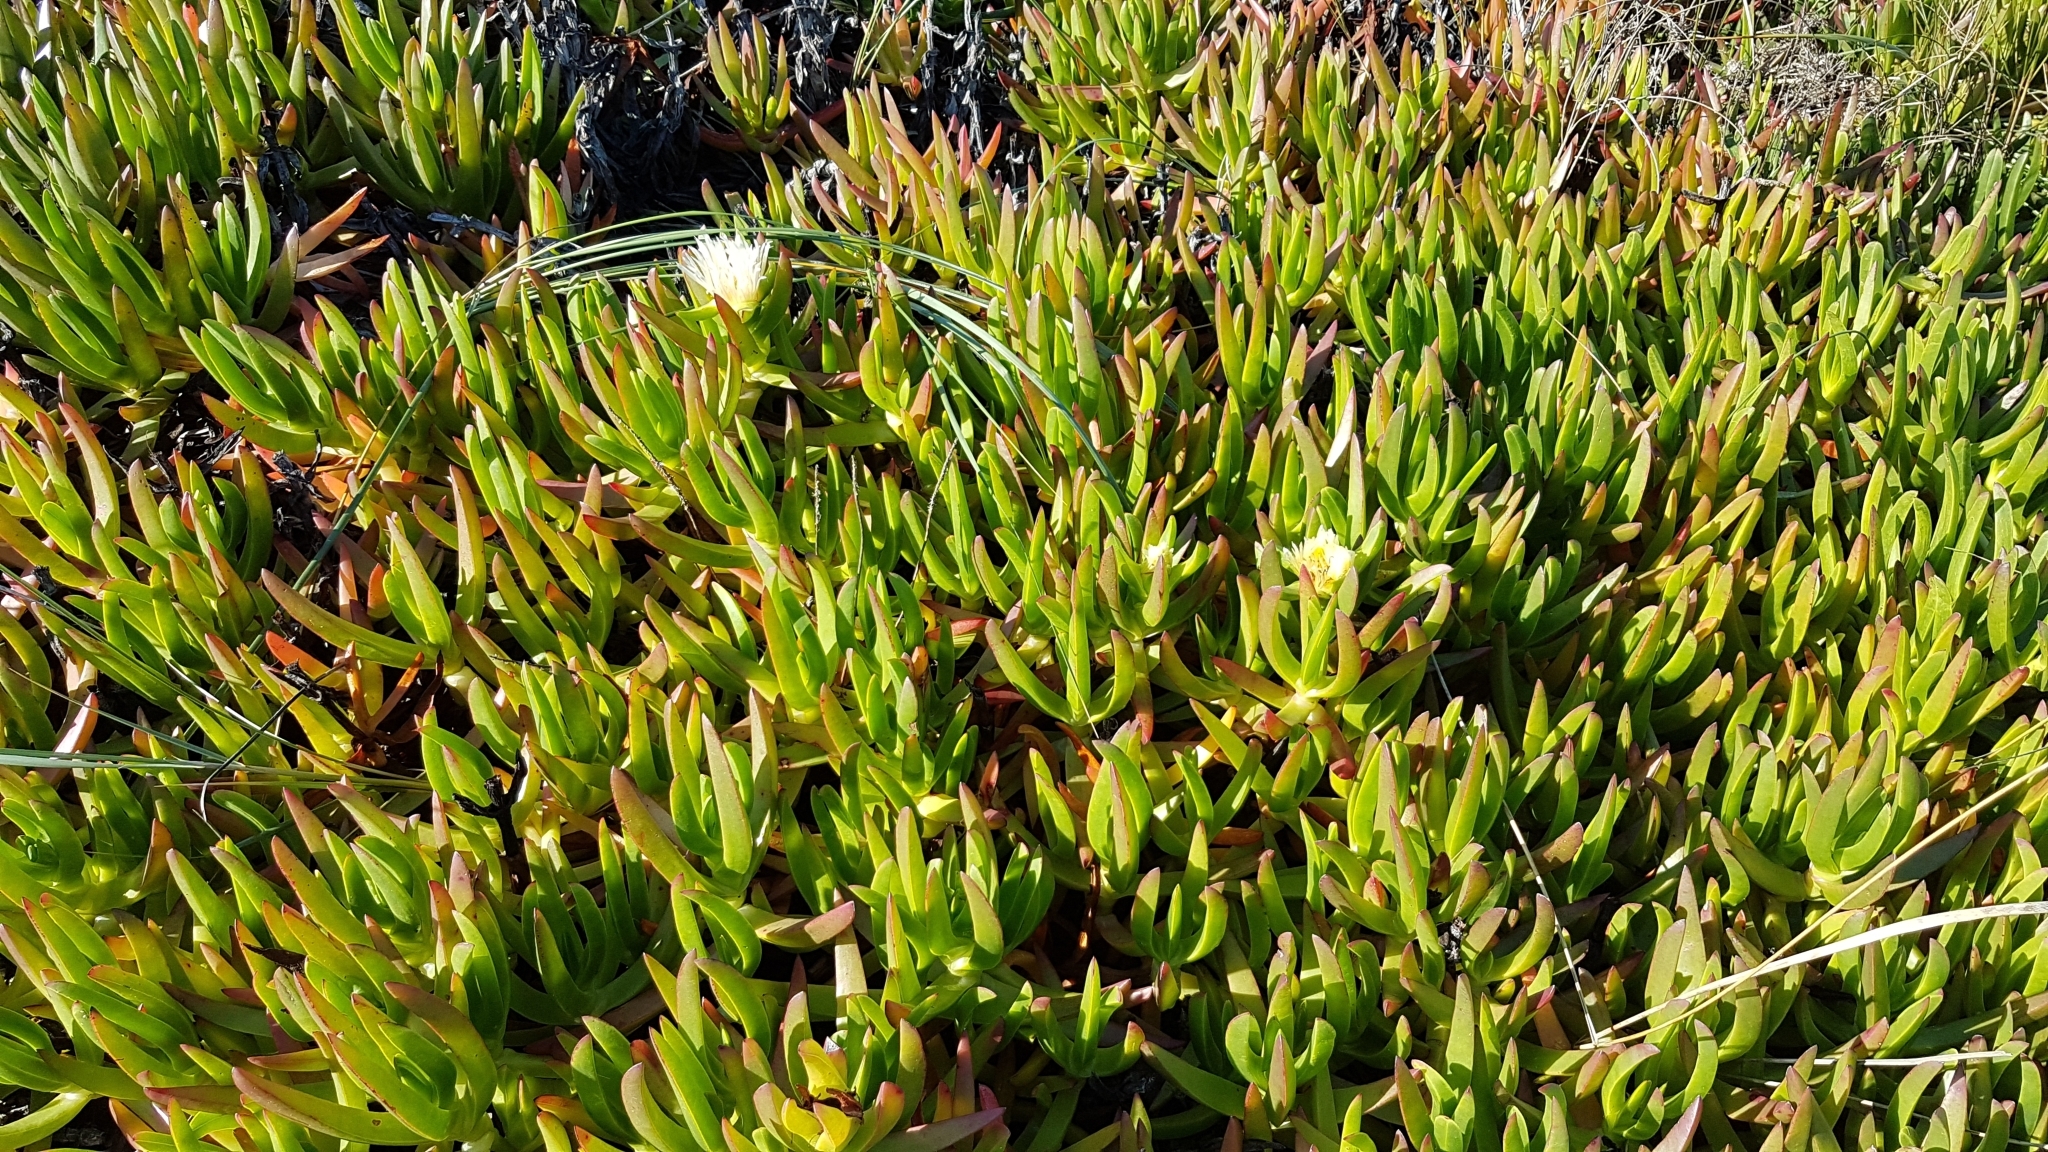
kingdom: Plantae
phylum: Tracheophyta
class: Magnoliopsida
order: Caryophyllales
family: Aizoaceae
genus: Carpobrotus
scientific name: Carpobrotus edulis
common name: Hottentot-fig
